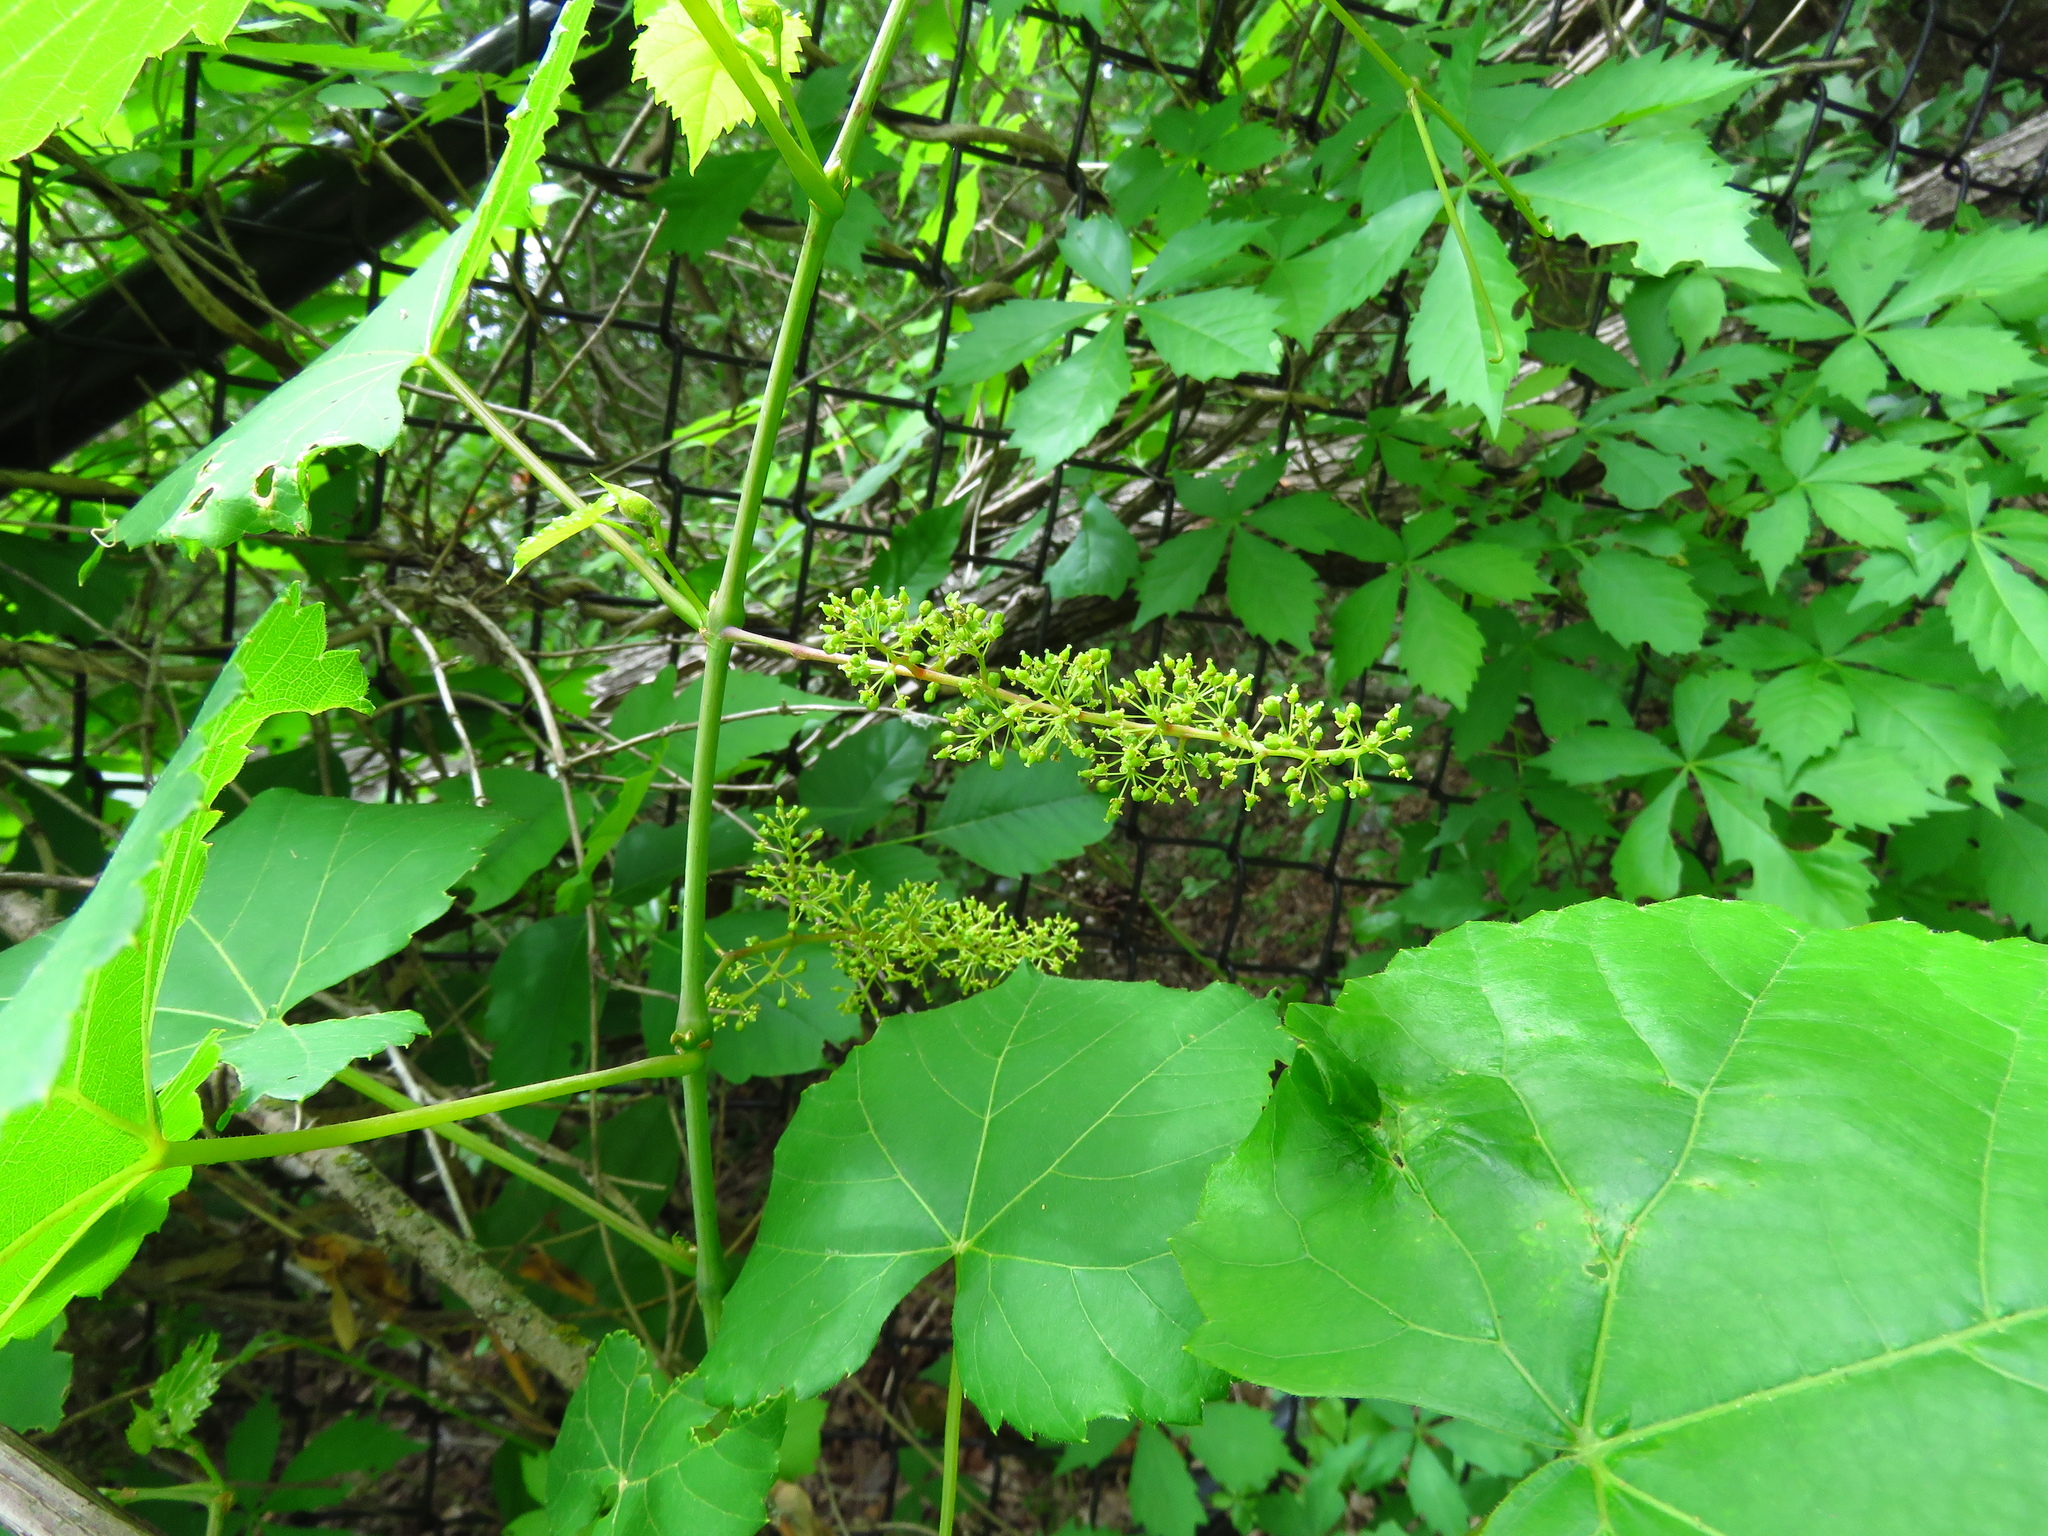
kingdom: Plantae
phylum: Tracheophyta
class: Magnoliopsida
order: Vitales
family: Vitaceae
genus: Ampelopsis
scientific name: Ampelopsis cordata
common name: Heart-leaf ampelopsis
